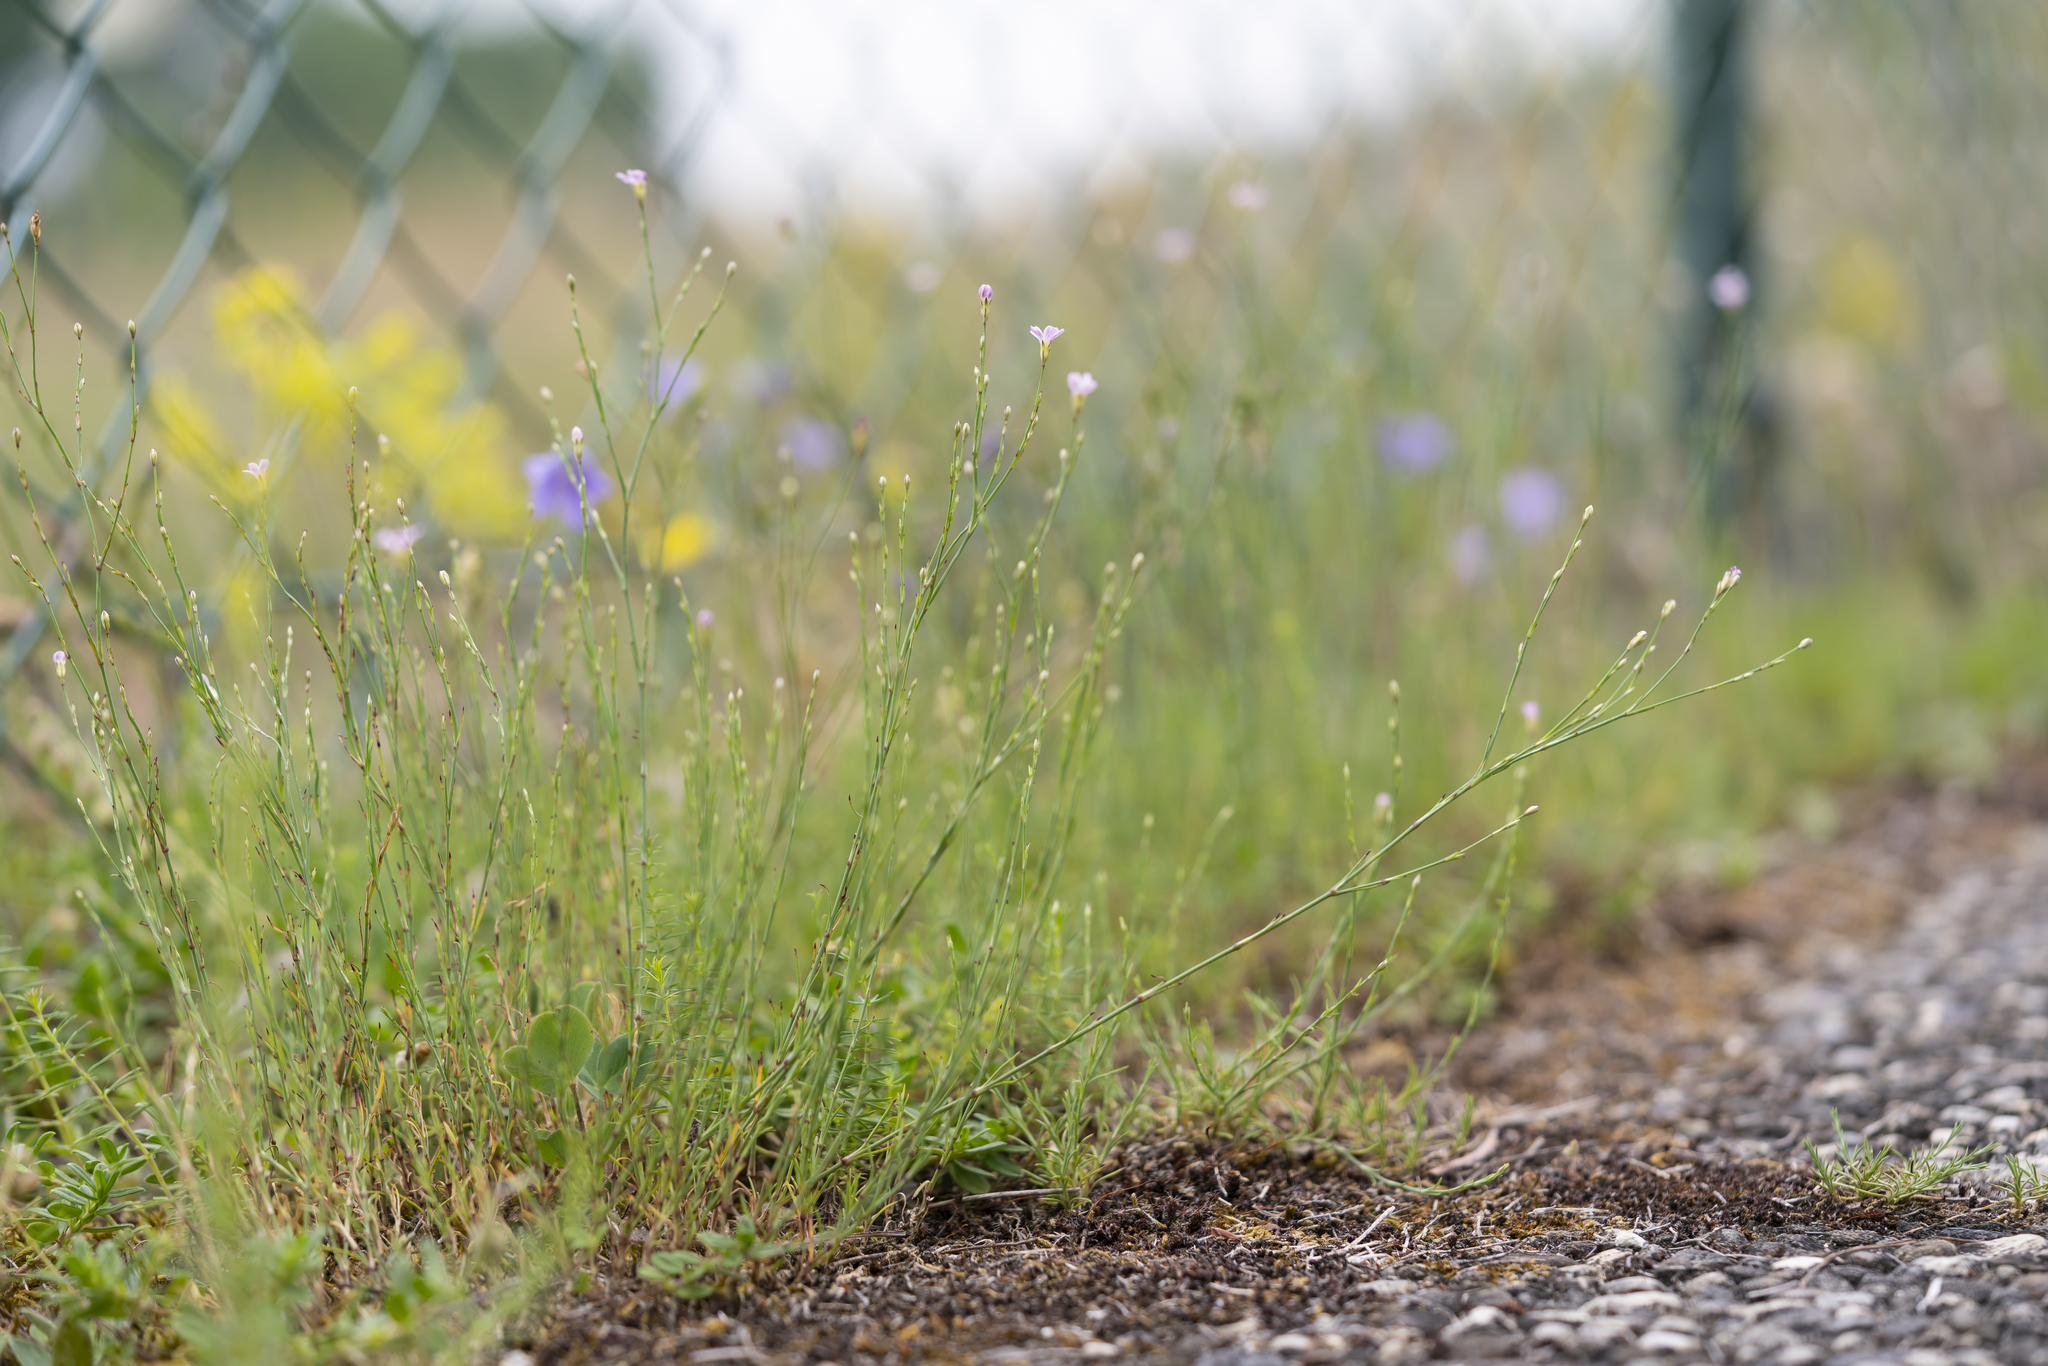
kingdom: Plantae
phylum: Tracheophyta
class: Magnoliopsida
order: Caryophyllales
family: Caryophyllaceae
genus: Petrorhagia
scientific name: Petrorhagia saxifraga
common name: Tunicflower
